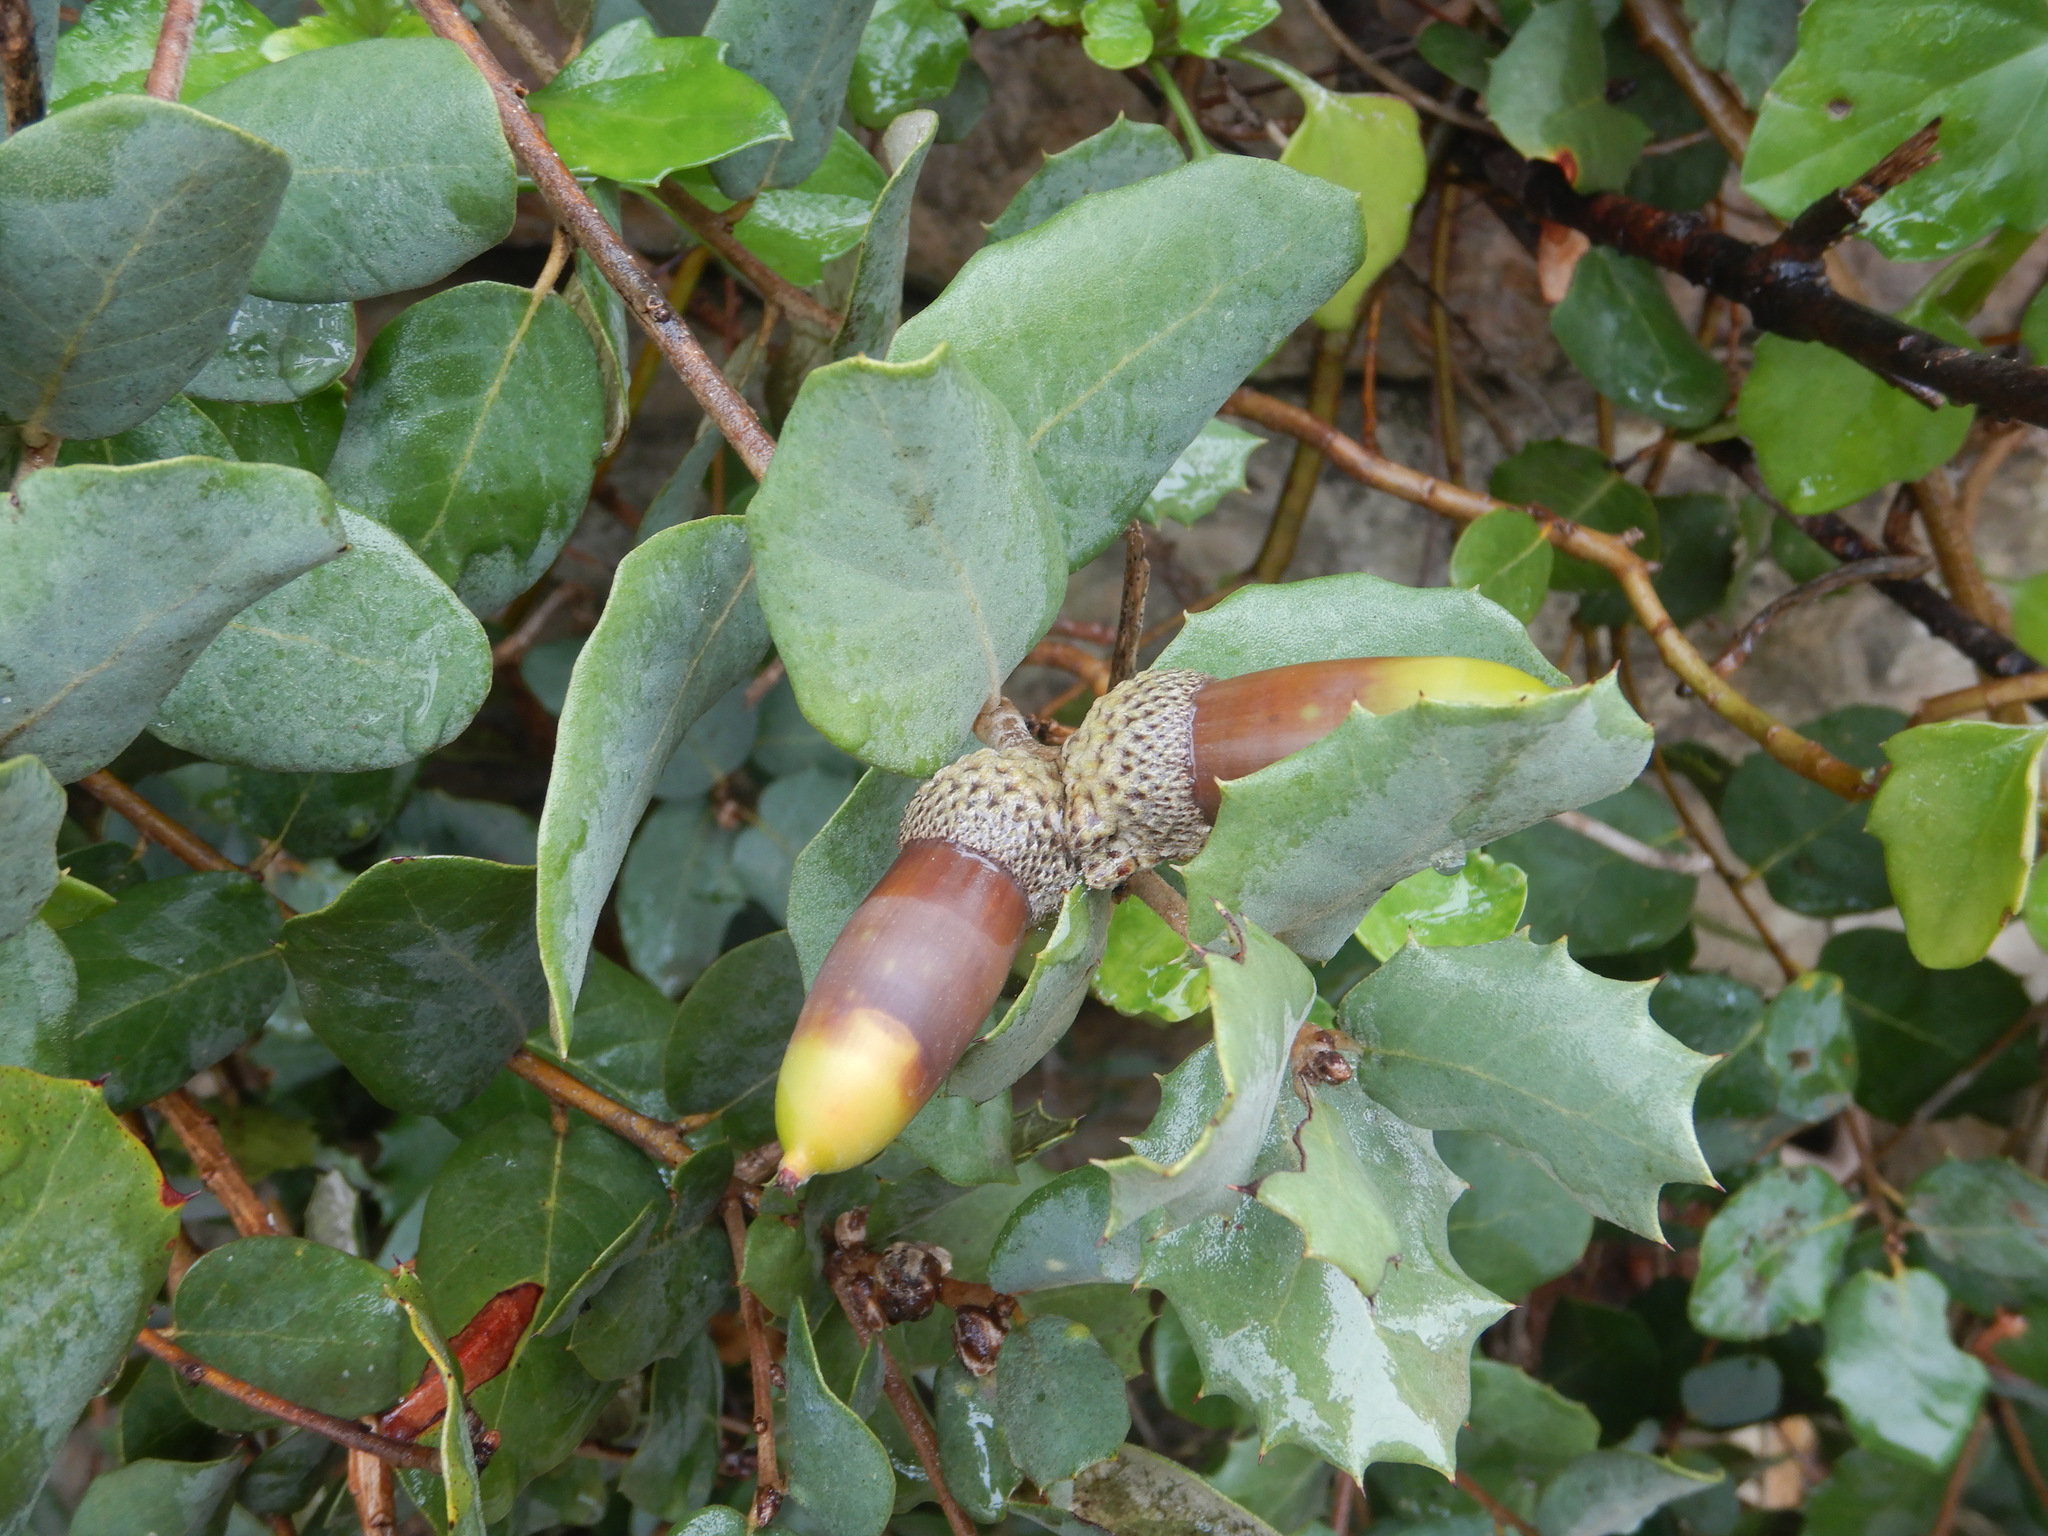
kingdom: Plantae
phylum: Tracheophyta
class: Magnoliopsida
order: Fagales
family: Fagaceae
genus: Quercus
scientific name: Quercus rotundifolia
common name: Holm oak
